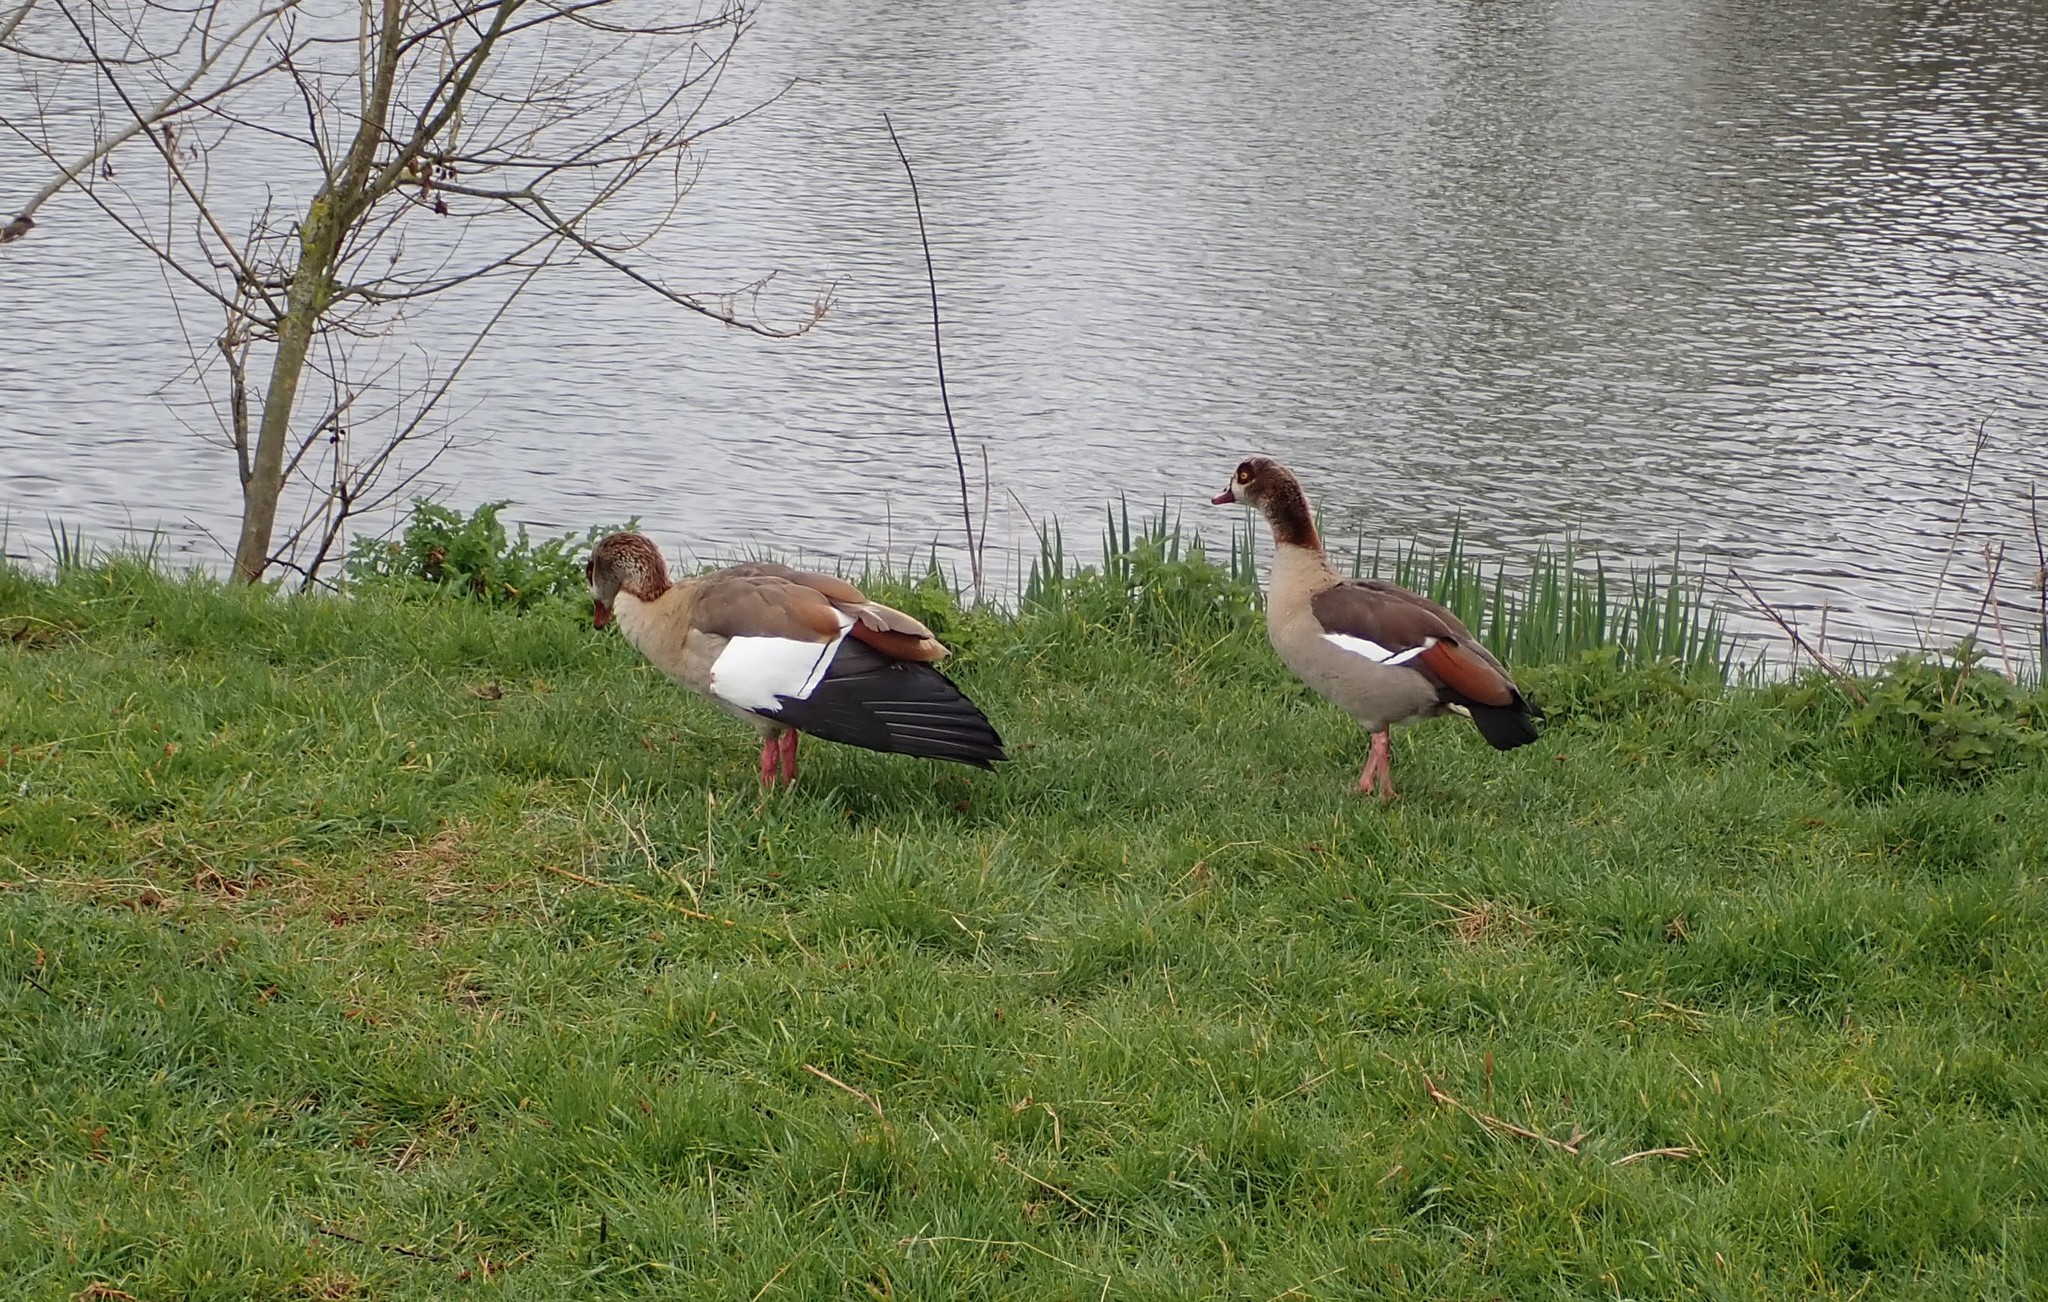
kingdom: Animalia
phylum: Chordata
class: Aves
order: Anseriformes
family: Anatidae
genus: Alopochen
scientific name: Alopochen aegyptiaca
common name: Egyptian goose
